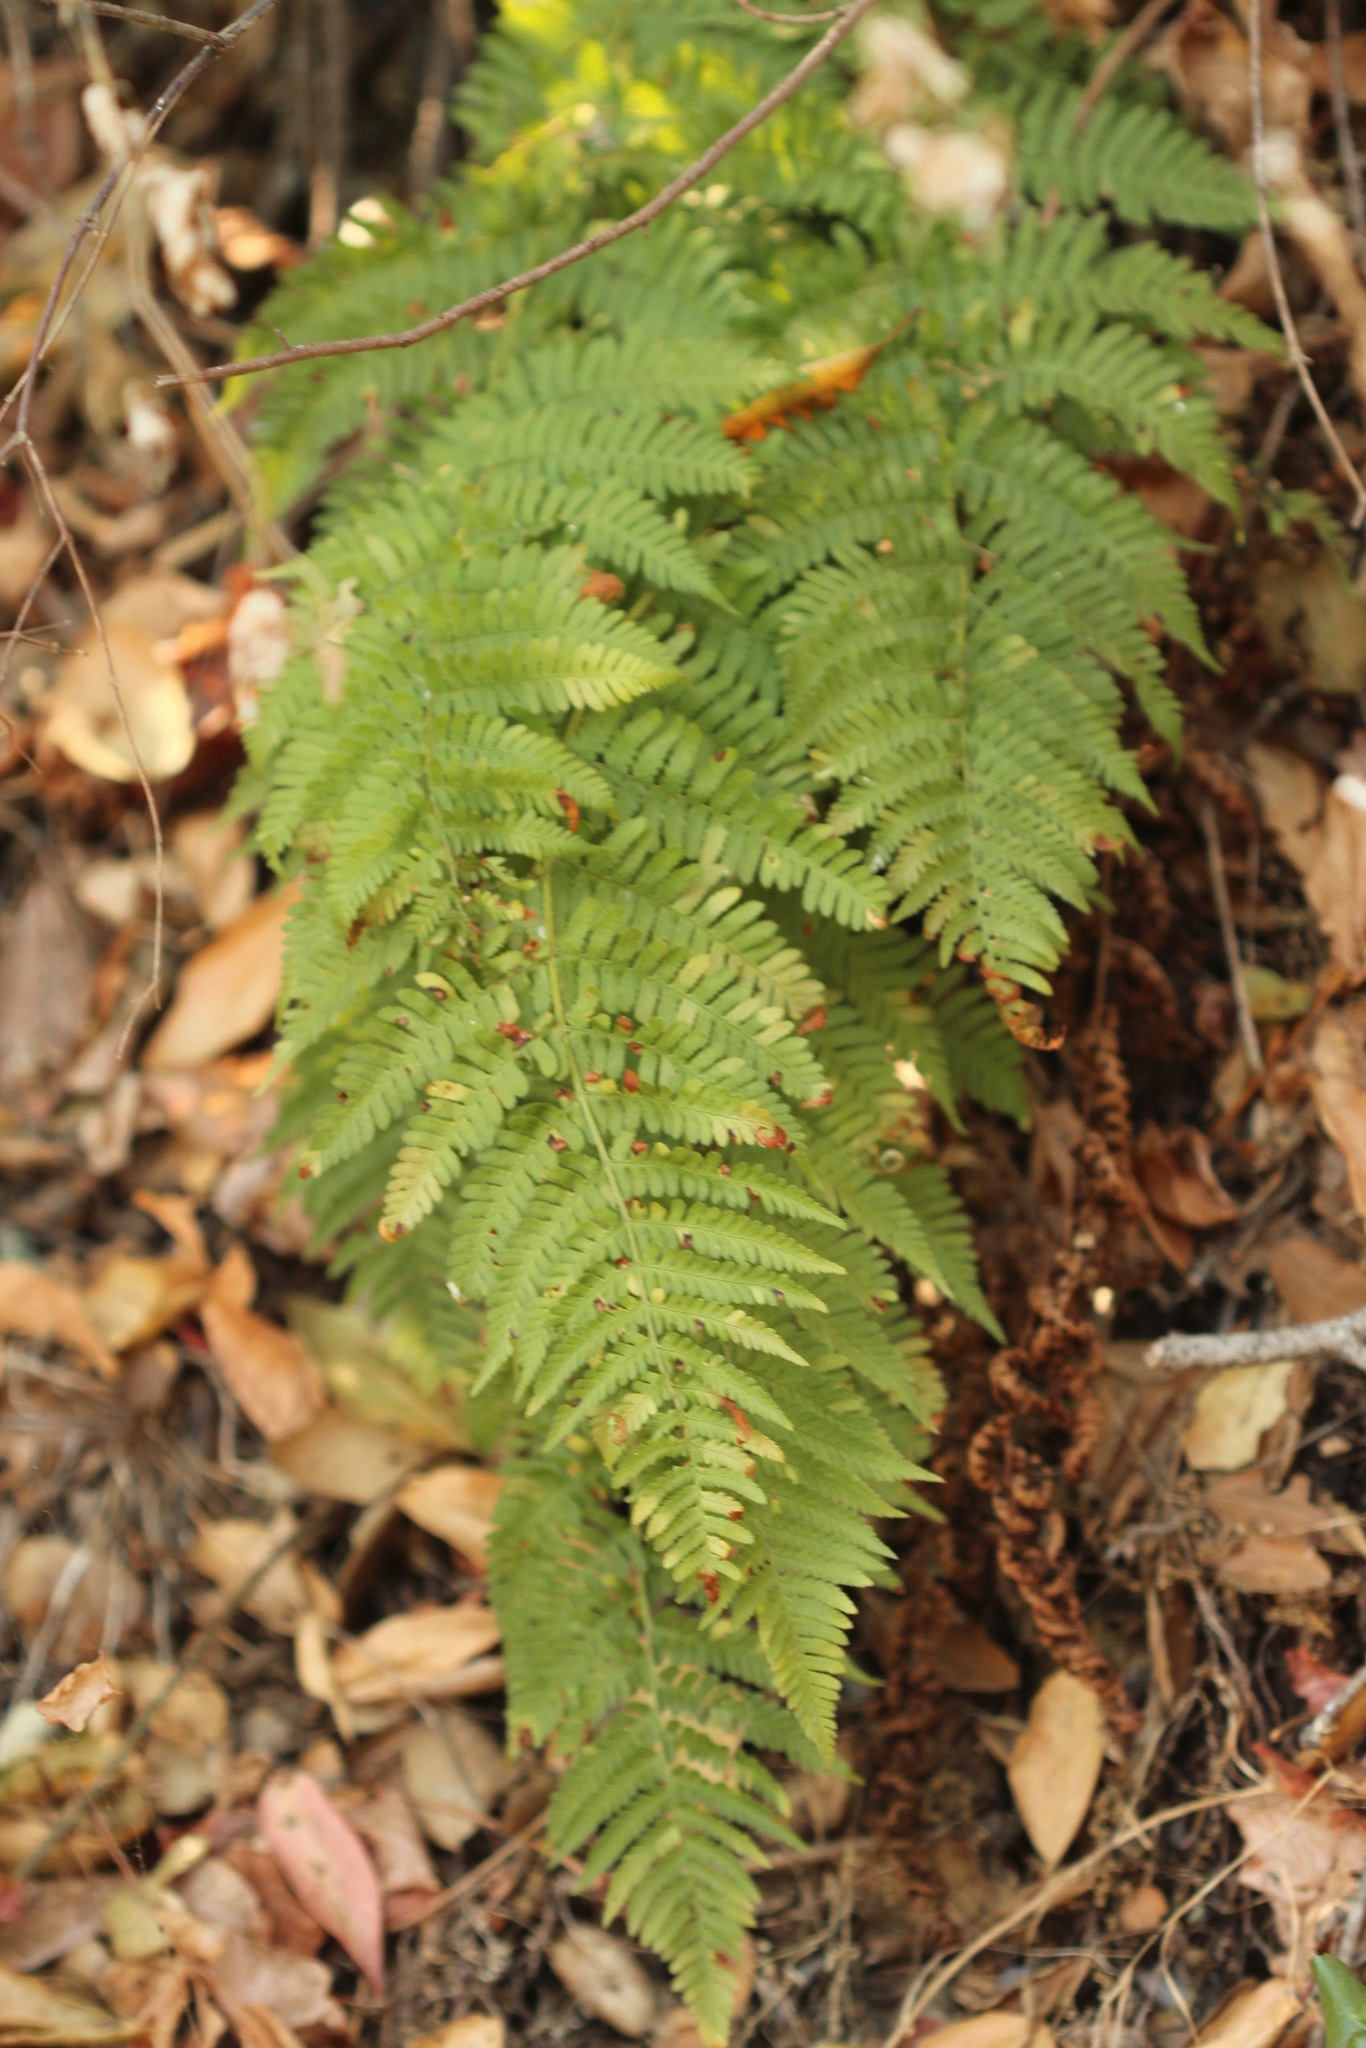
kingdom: Plantae
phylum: Tracheophyta
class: Polypodiopsida
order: Polypodiales
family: Dryopteridaceae
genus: Dryopteris
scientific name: Dryopteris arguta
